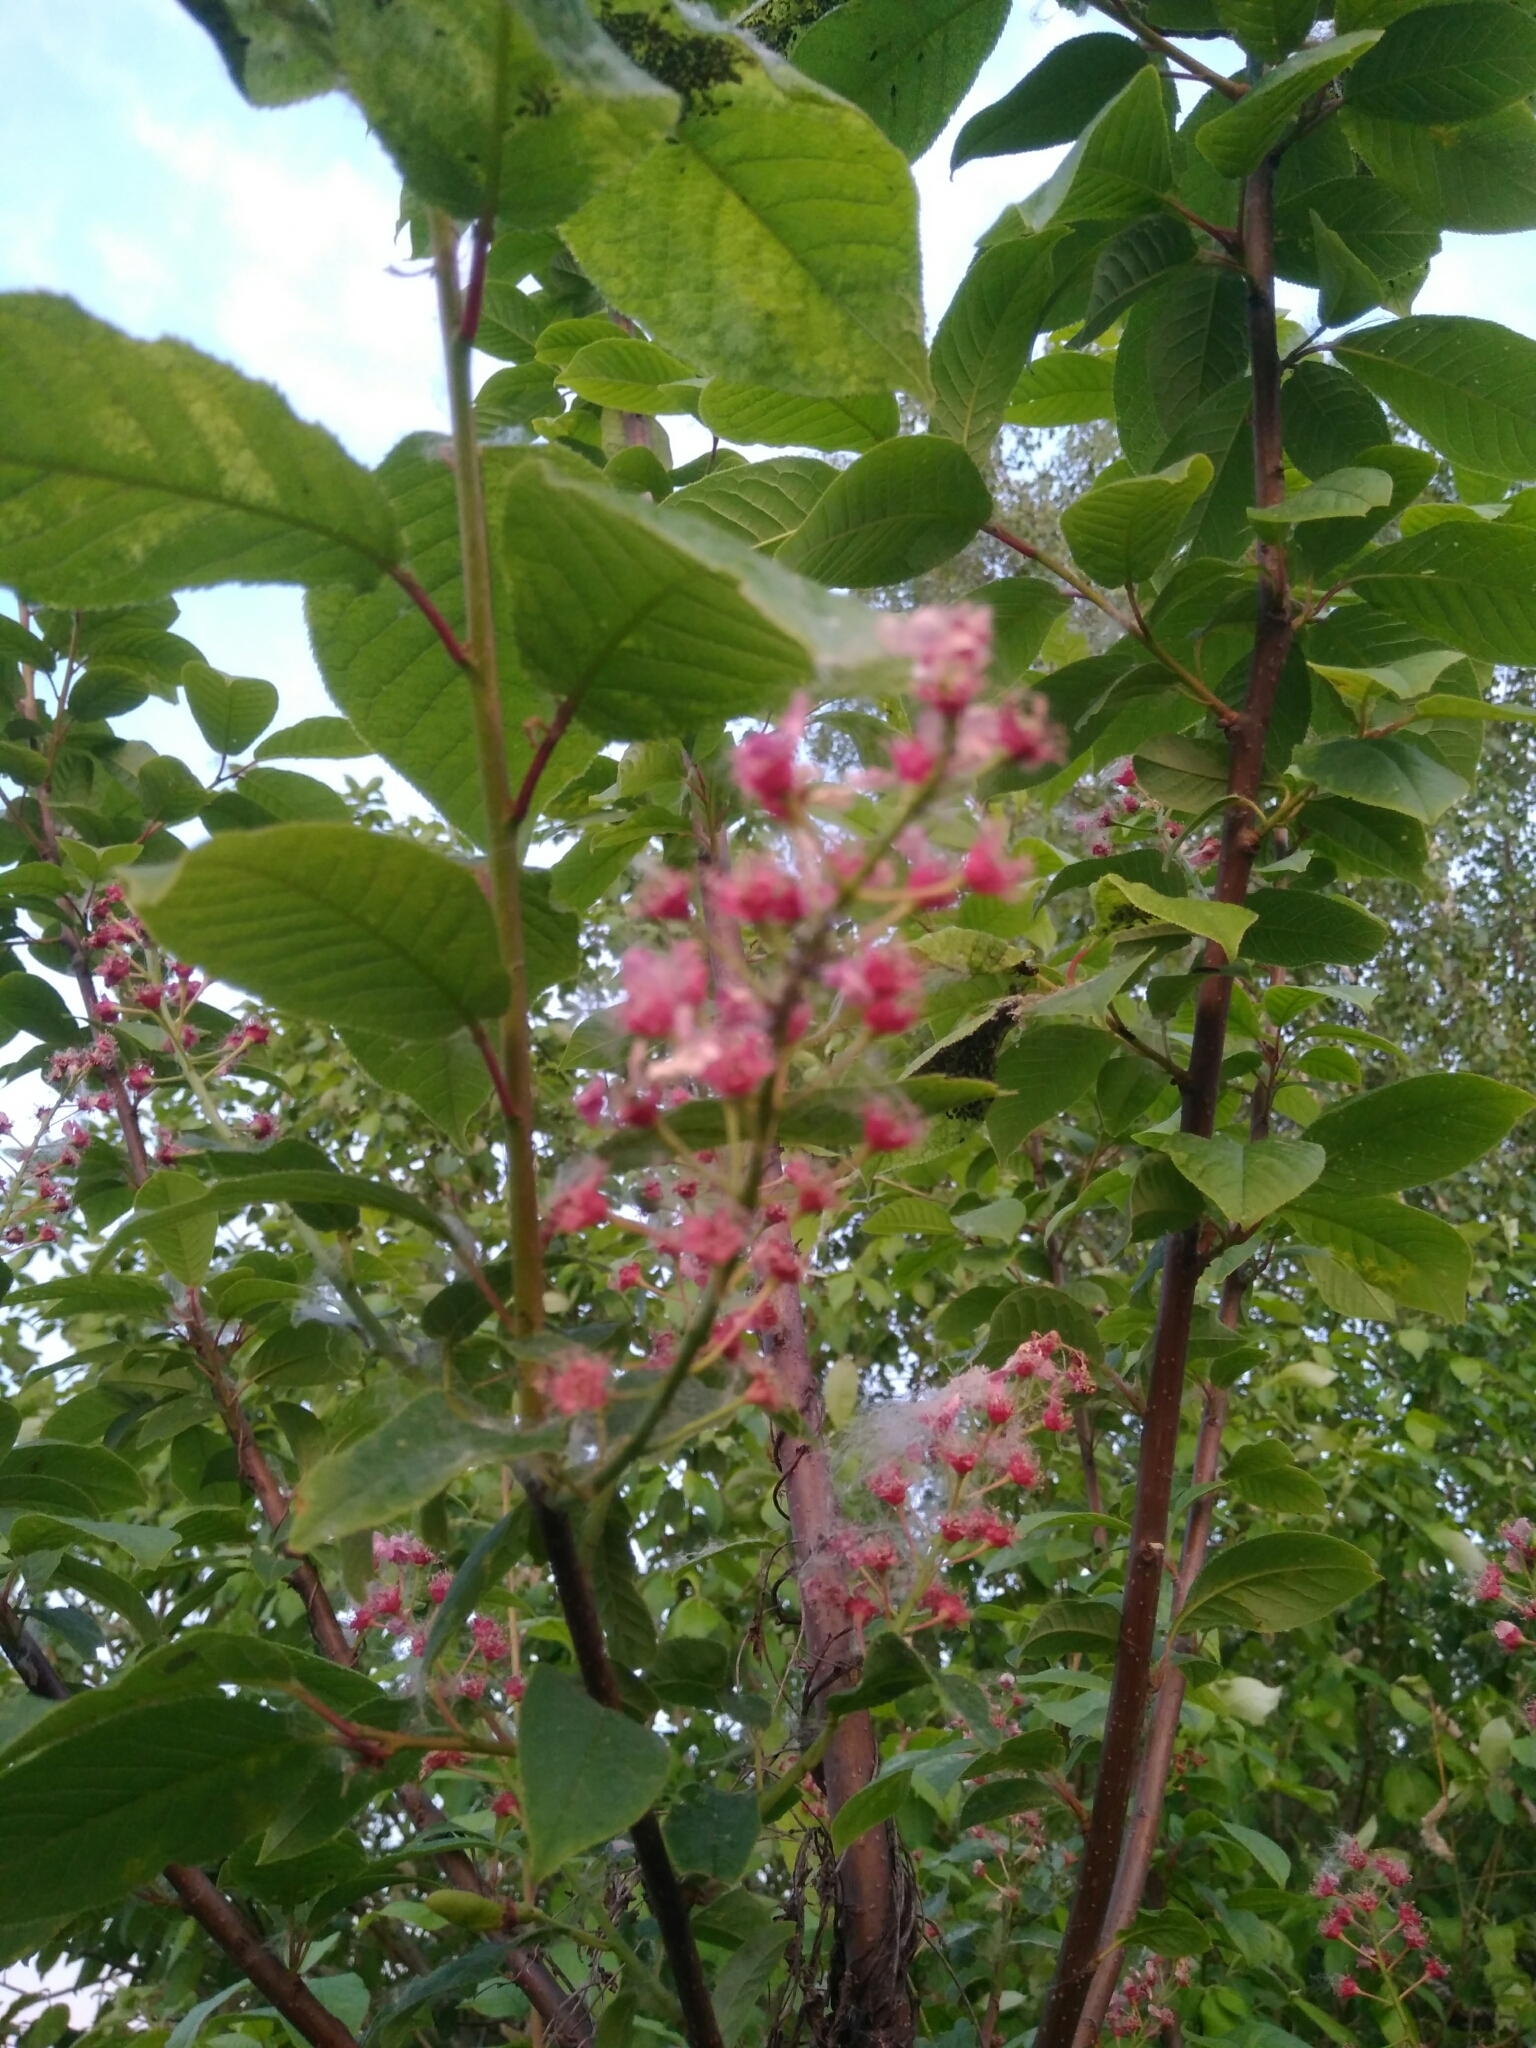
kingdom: Plantae
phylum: Tracheophyta
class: Magnoliopsida
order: Rosales
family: Rosaceae
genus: Prunus
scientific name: Prunus padus
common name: Bird cherry
